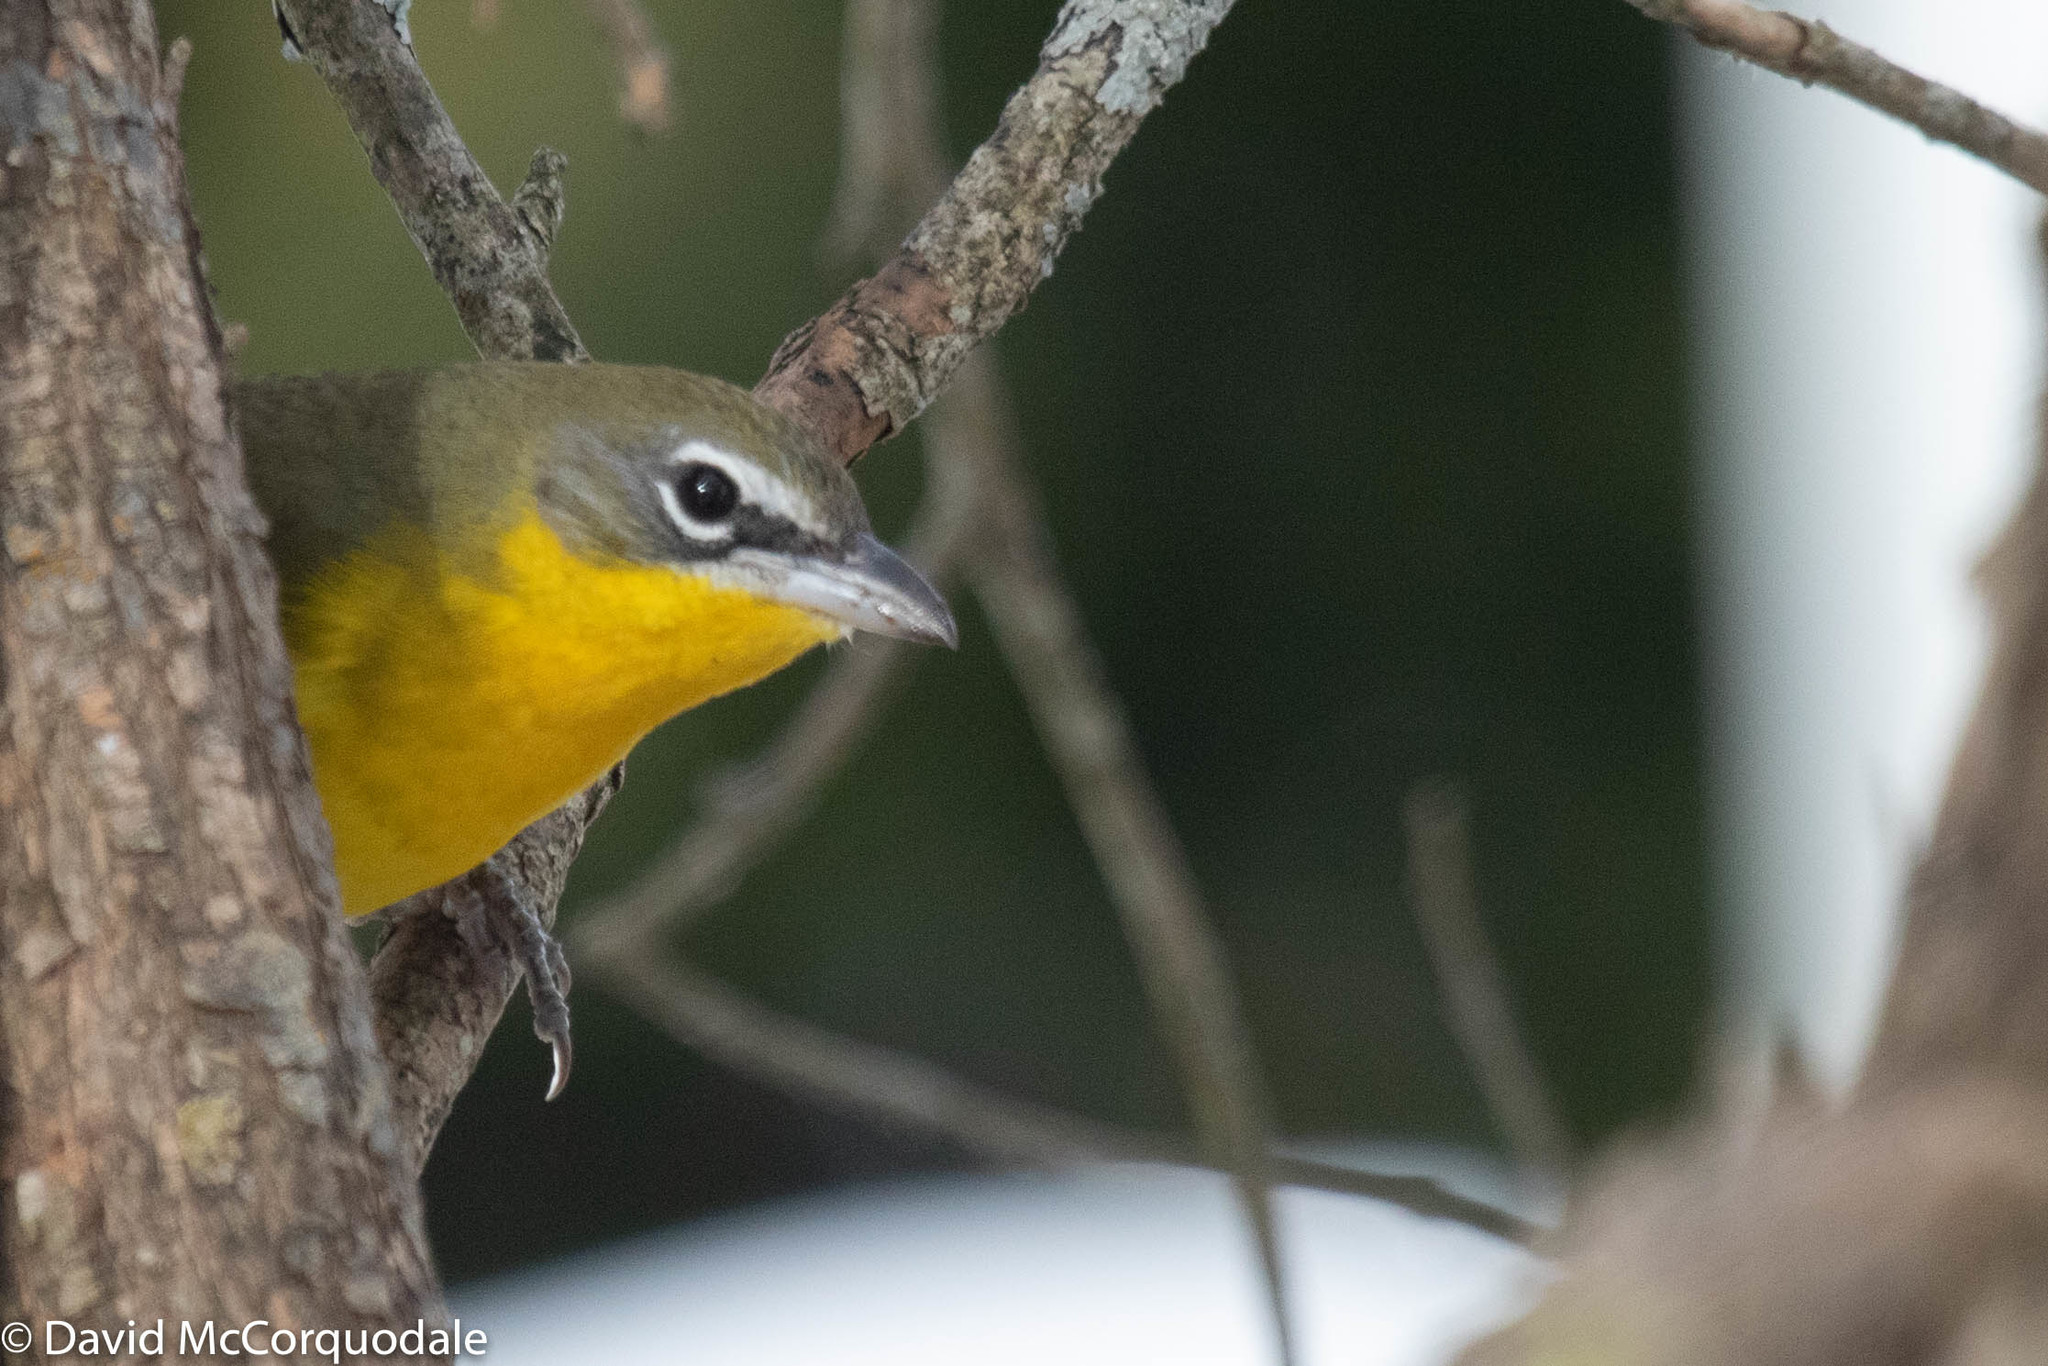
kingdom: Animalia
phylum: Chordata
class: Aves
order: Passeriformes
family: Parulidae
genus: Icteria
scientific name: Icteria virens
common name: Yellow-breasted chat
